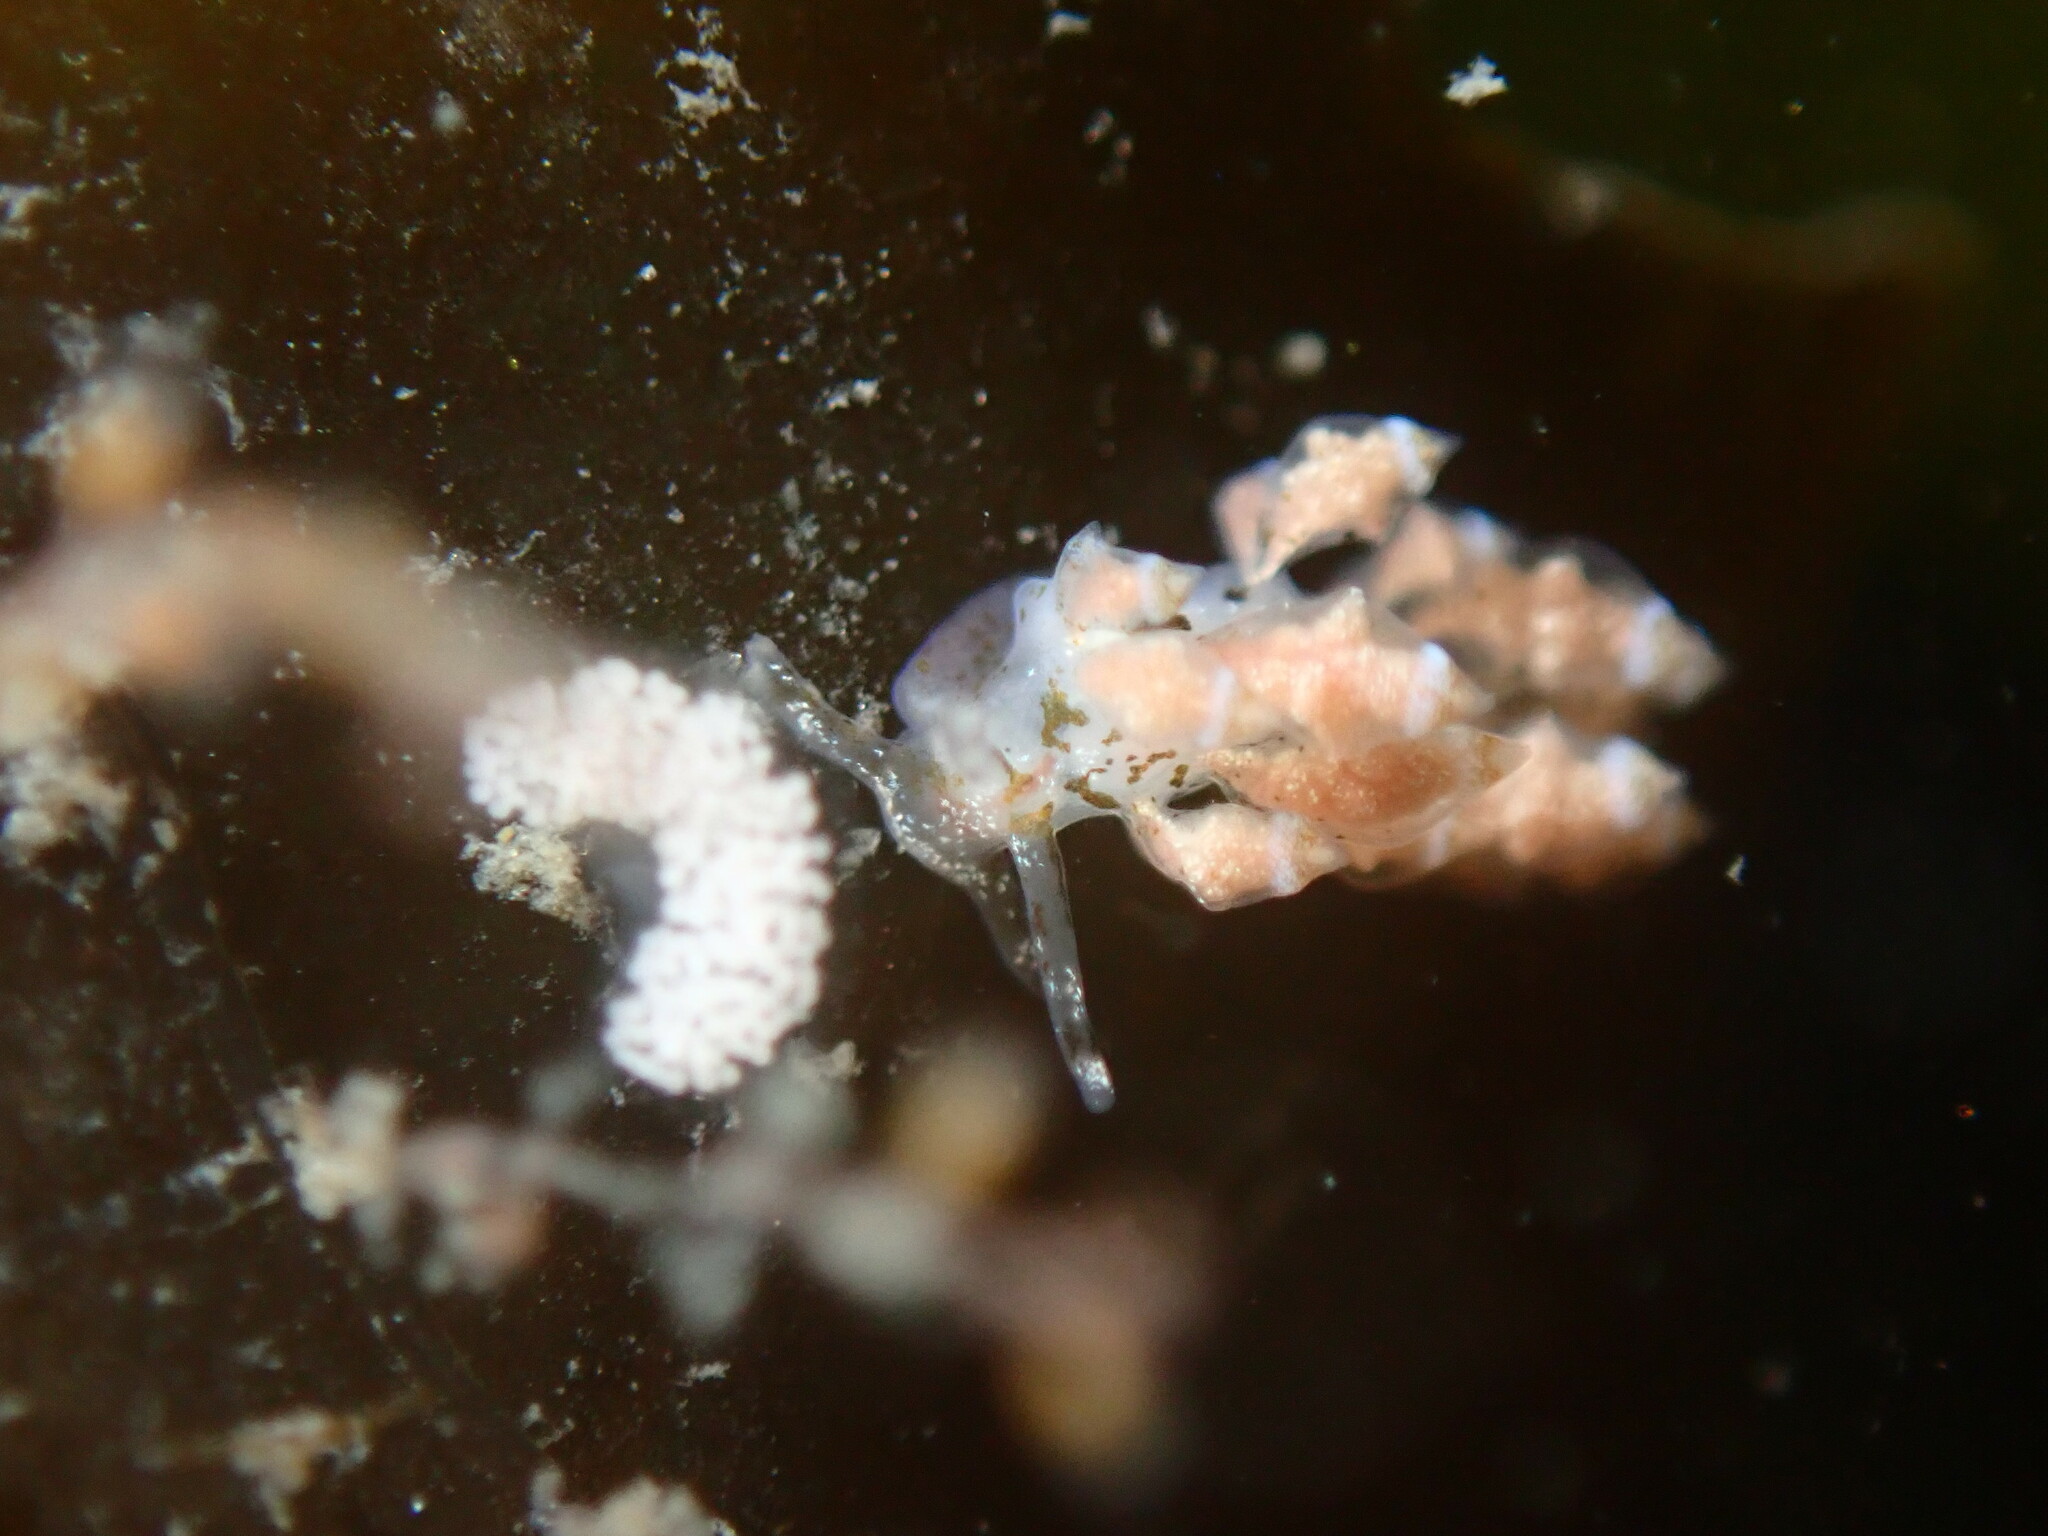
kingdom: Animalia
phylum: Mollusca
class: Gastropoda
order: Nudibranchia
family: Eubranchidae
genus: Eubranchus
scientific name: Eubranchus rustyus
